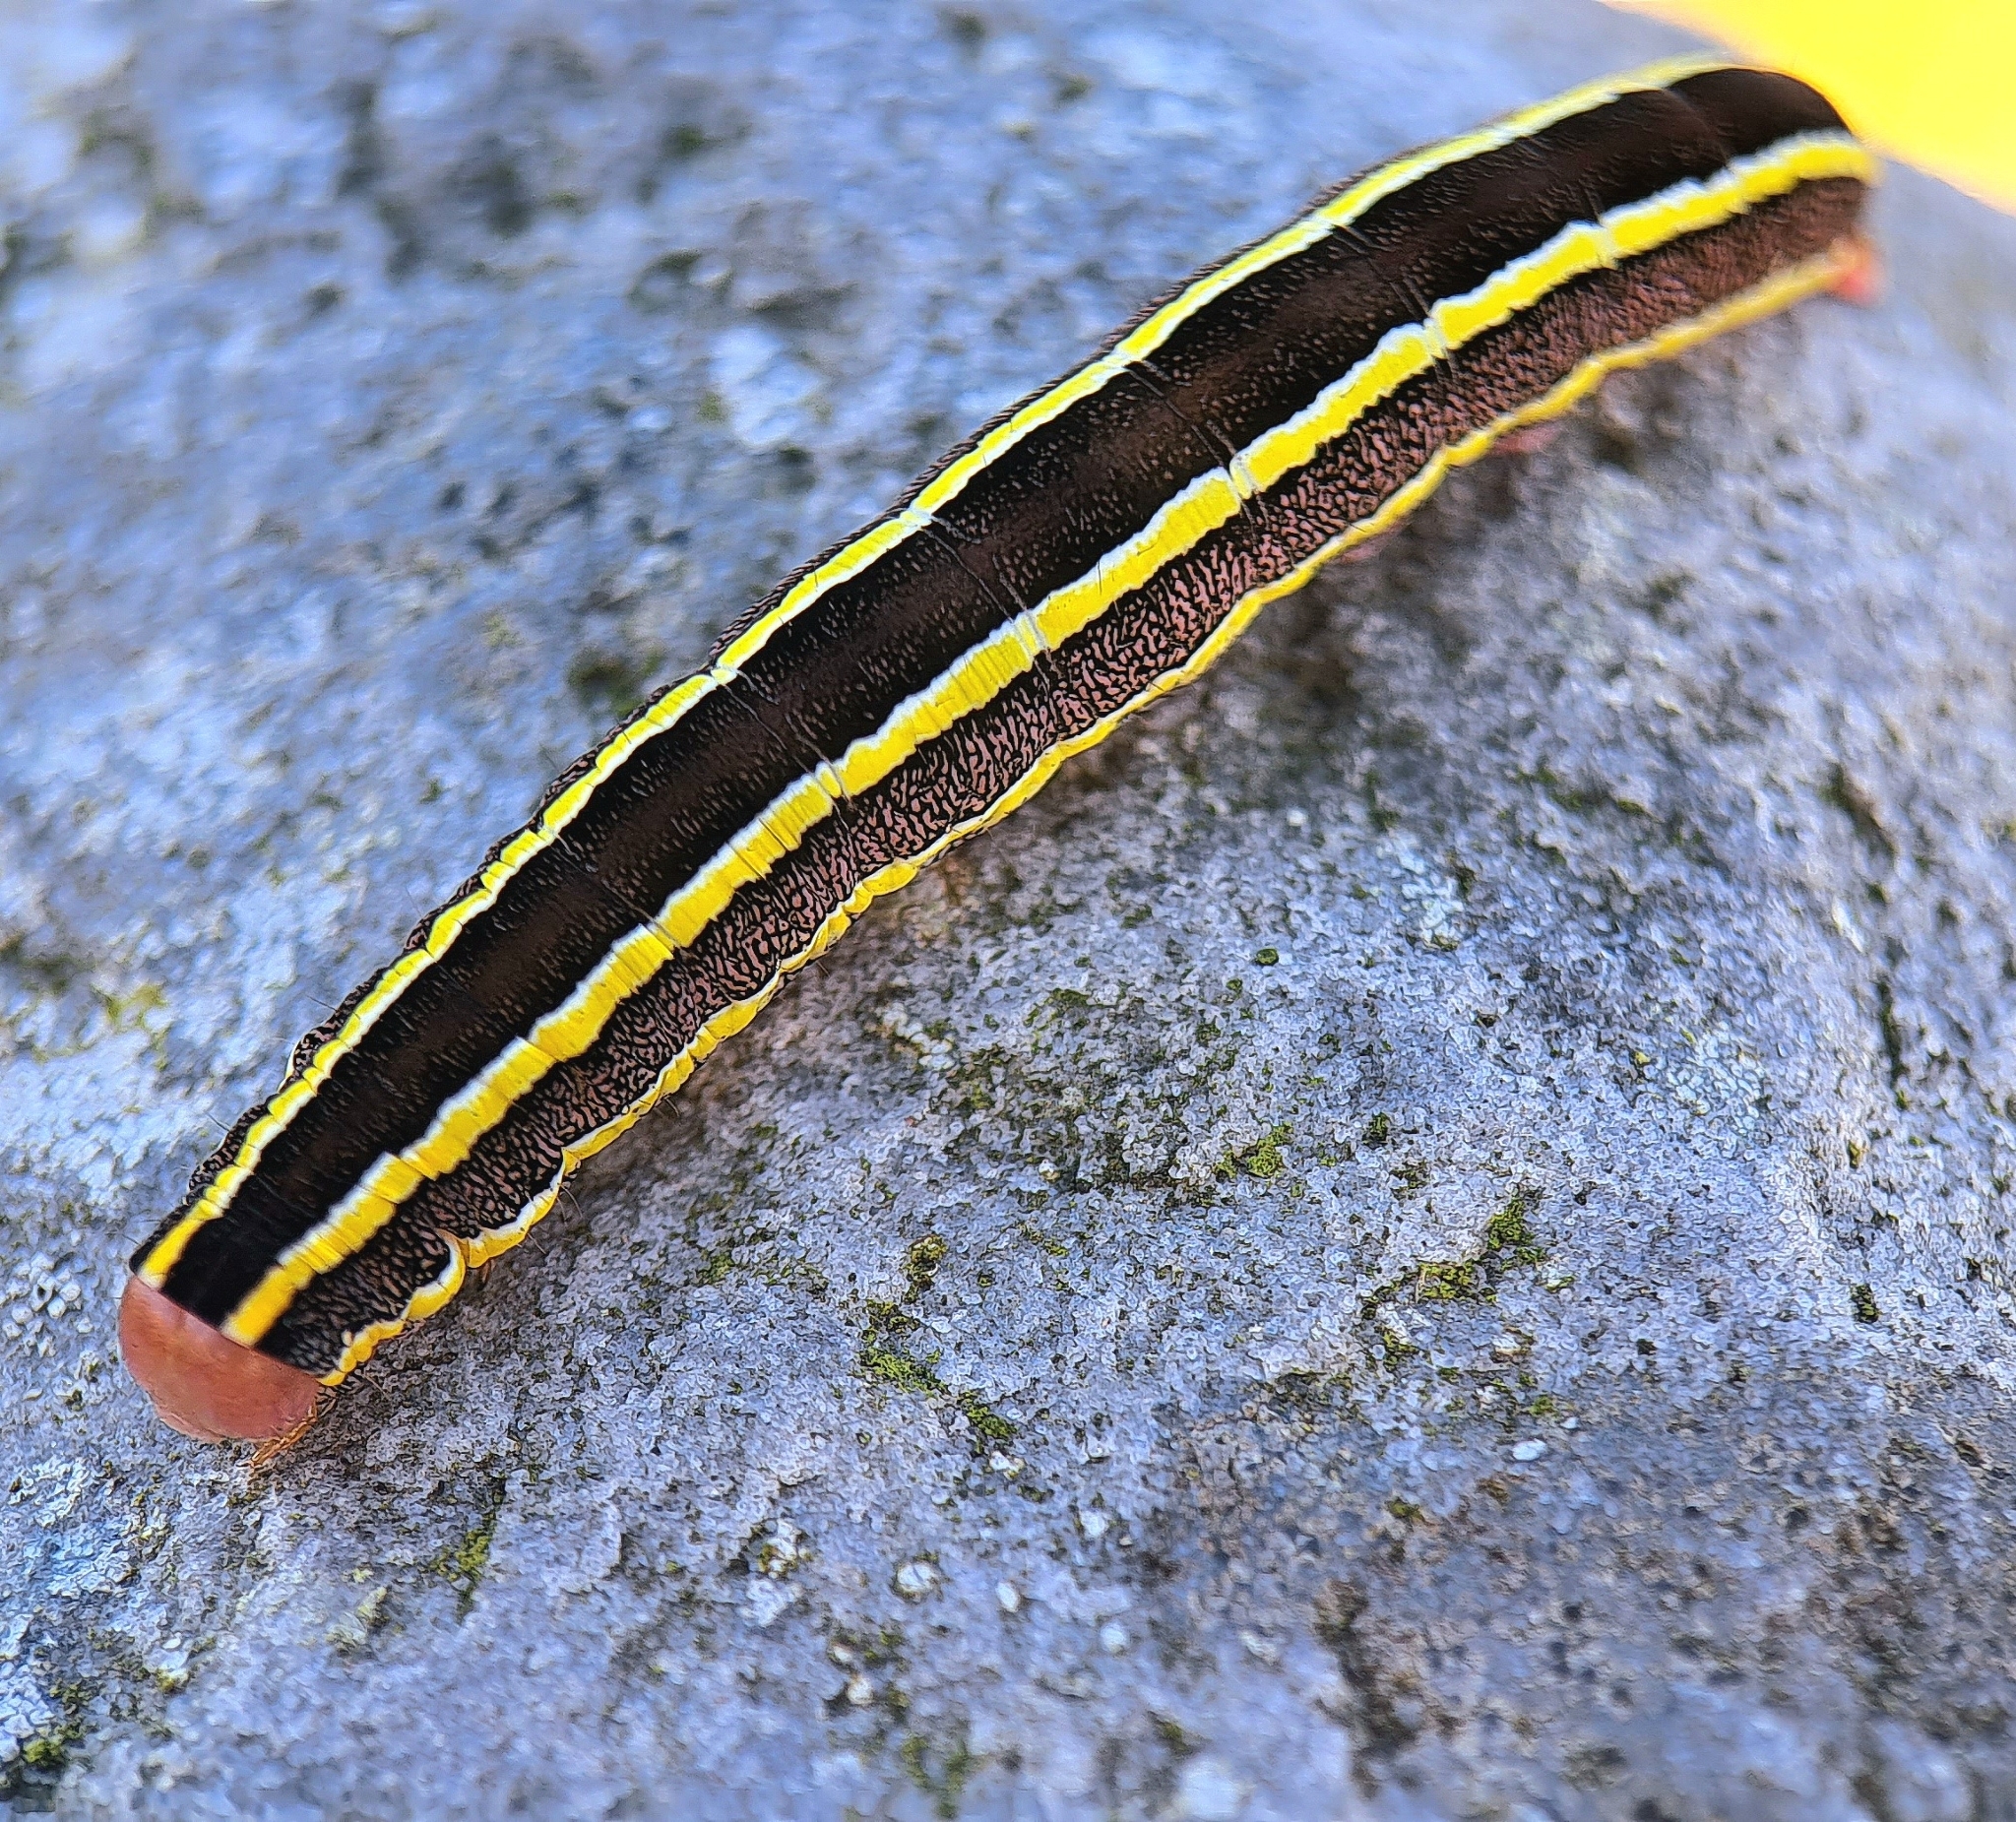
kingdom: Animalia
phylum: Arthropoda
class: Insecta
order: Lepidoptera
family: Noctuidae
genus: Ceramica
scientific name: Ceramica pisi
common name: Broom moth
